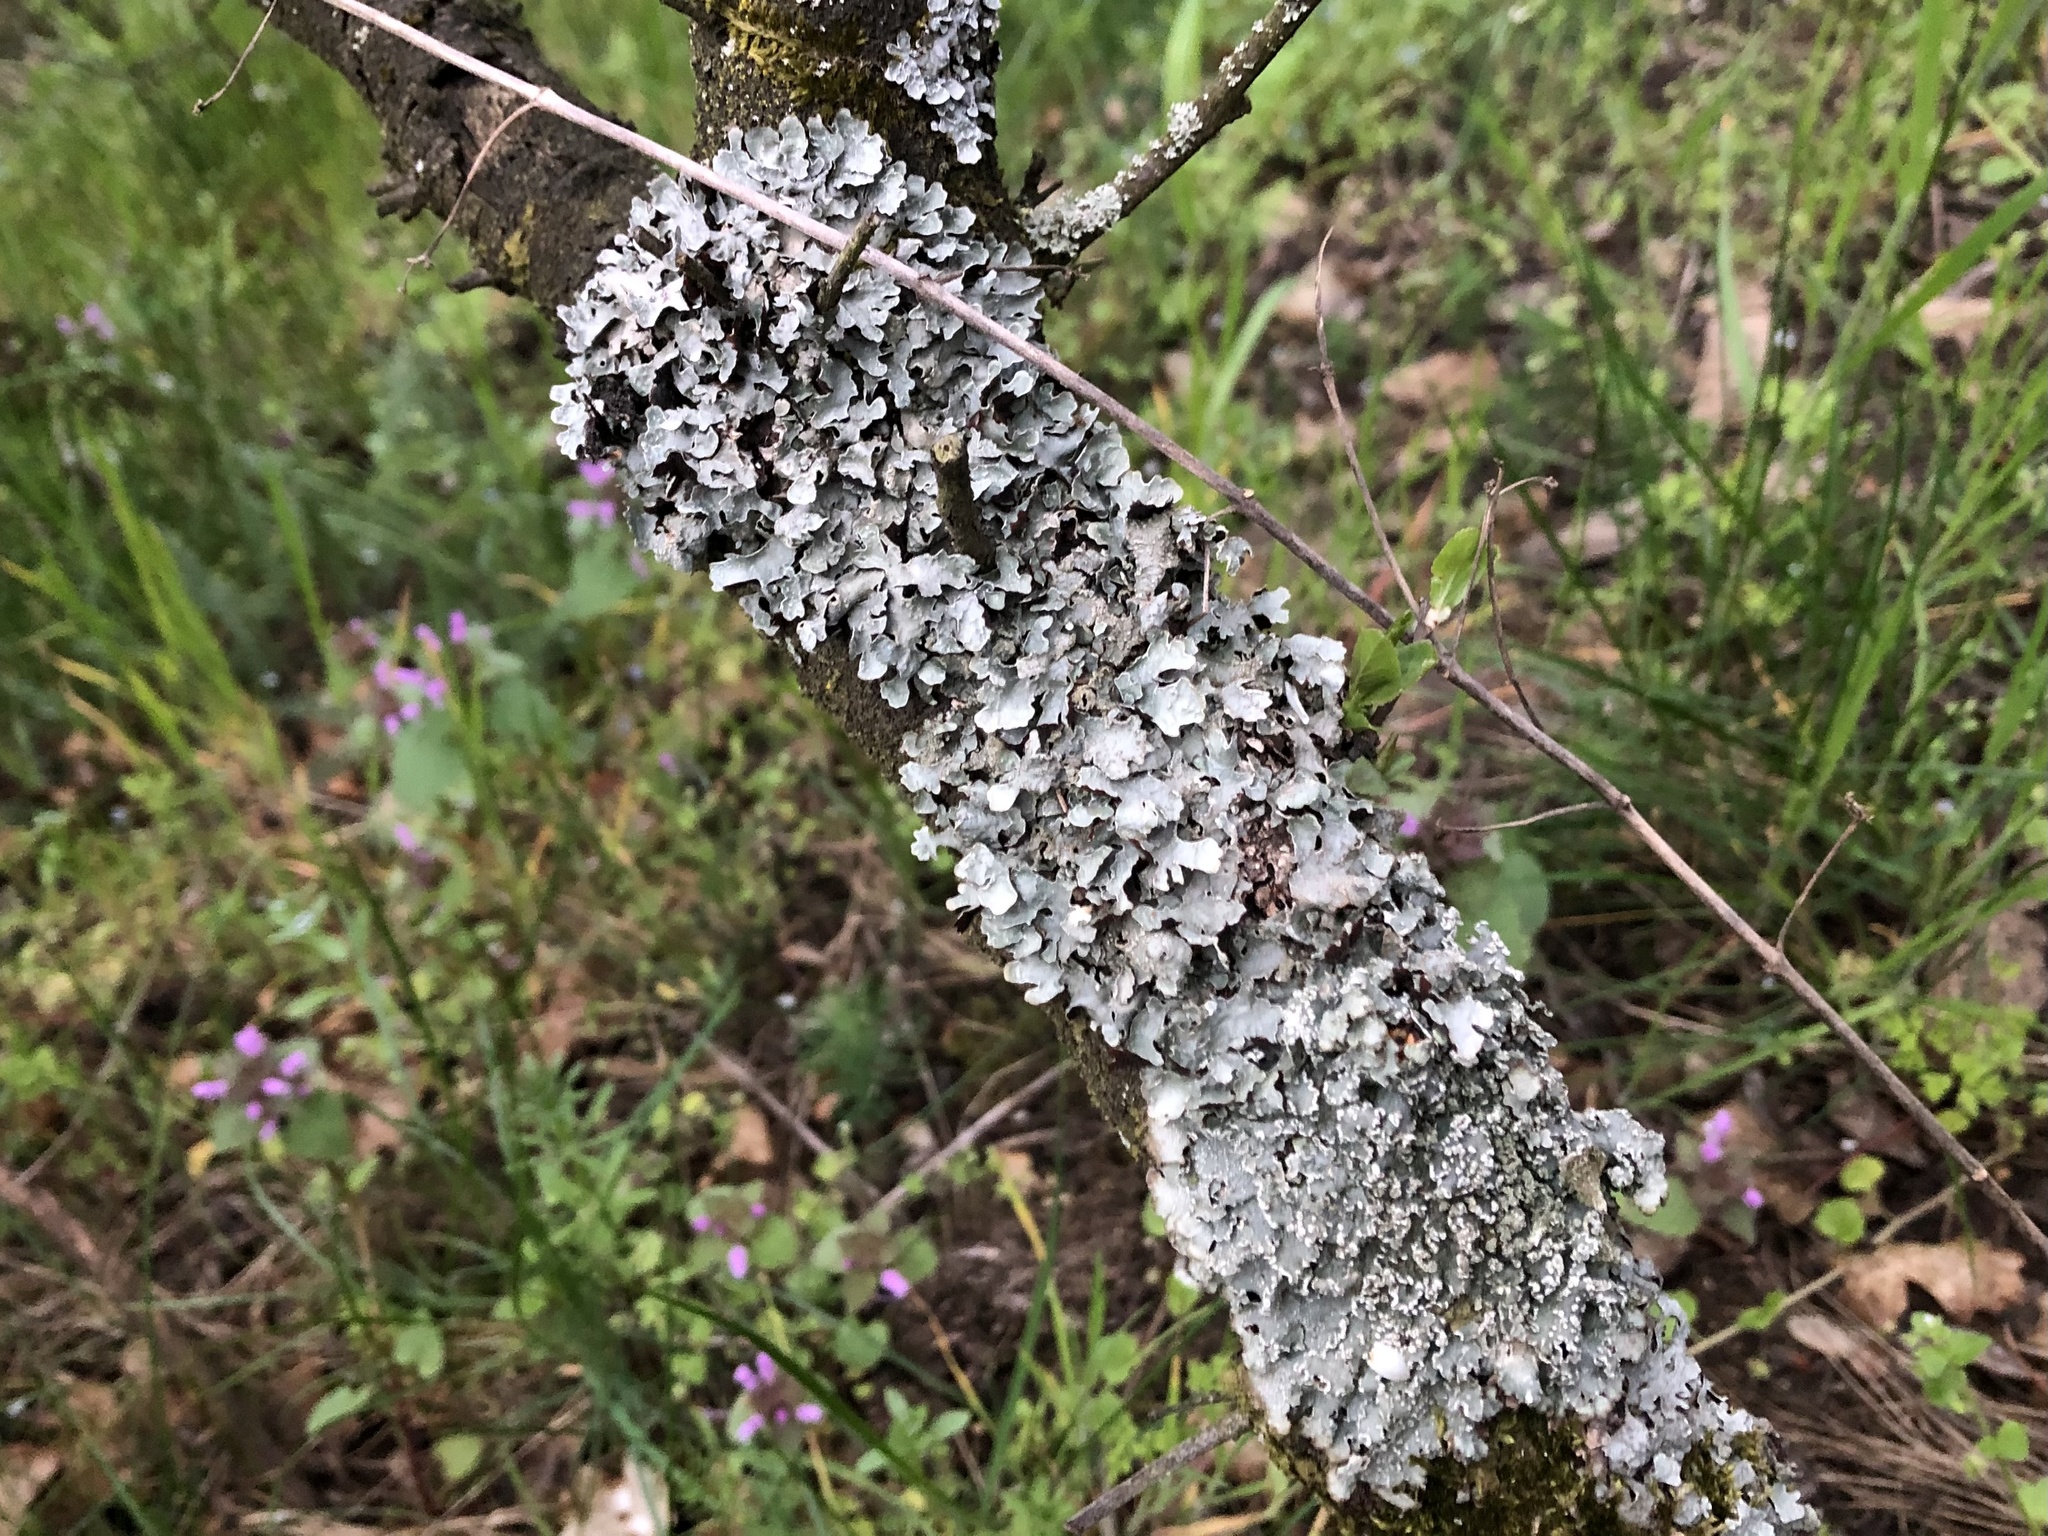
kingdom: Fungi
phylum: Ascomycota
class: Lecanoromycetes
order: Lecanorales
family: Parmeliaceae
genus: Parmelia
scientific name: Parmelia sulcata
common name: Netted shield lichen
